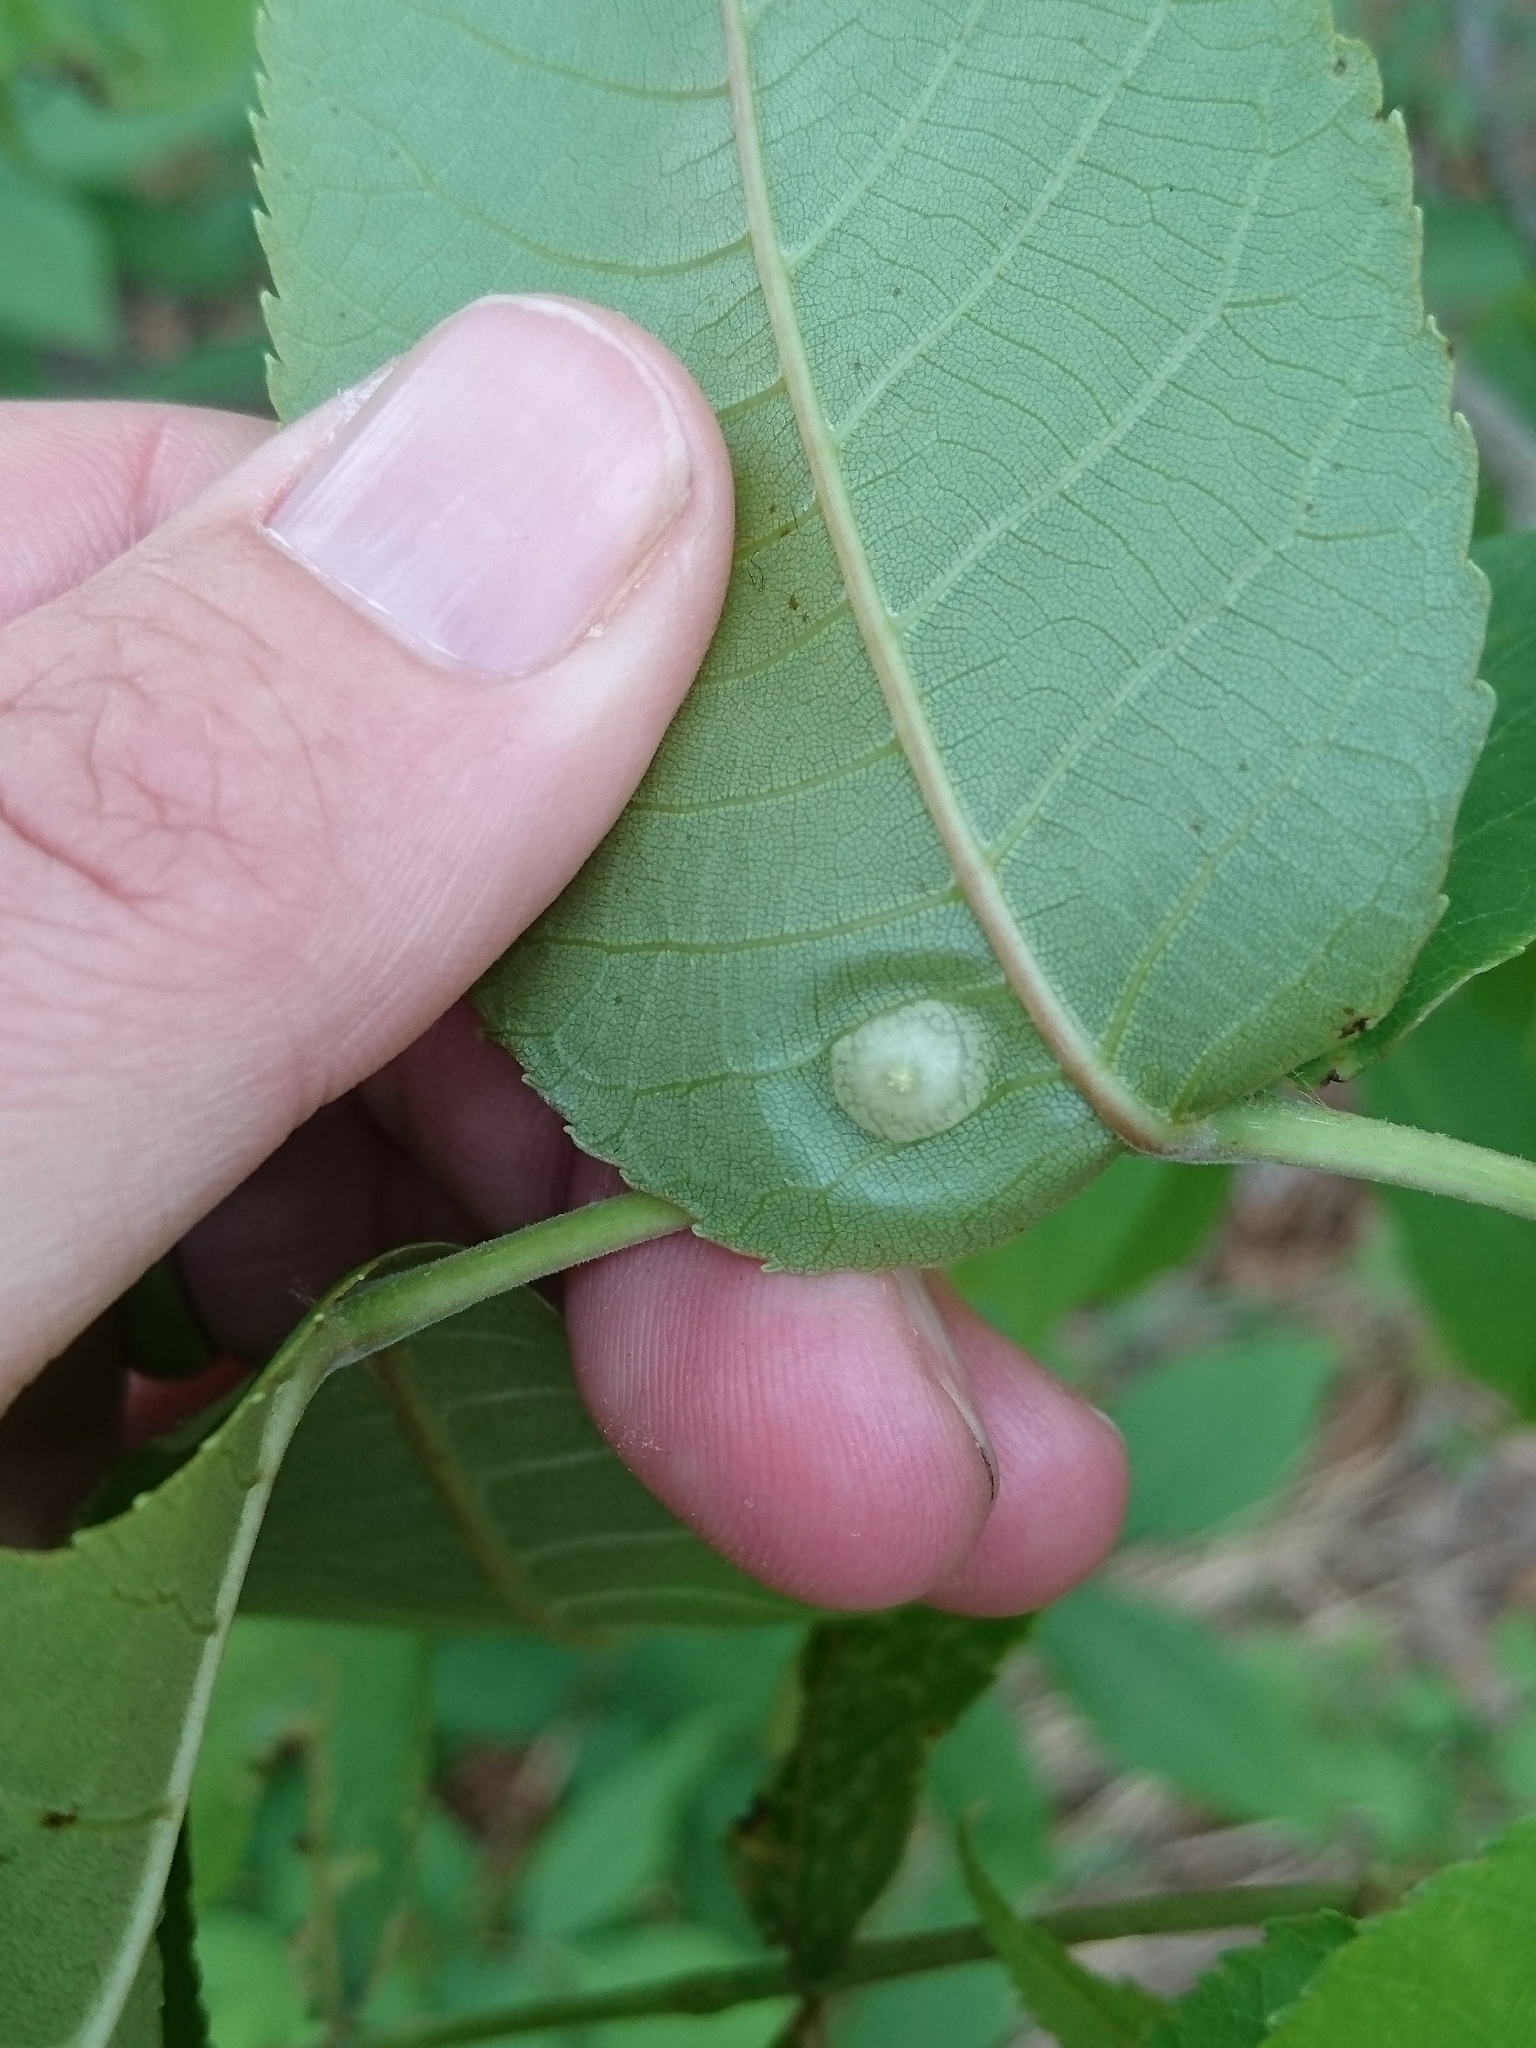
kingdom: Animalia
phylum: Arthropoda
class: Insecta
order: Hemiptera
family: Phylloxeridae
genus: Phylloxera
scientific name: Phylloxera russellae
